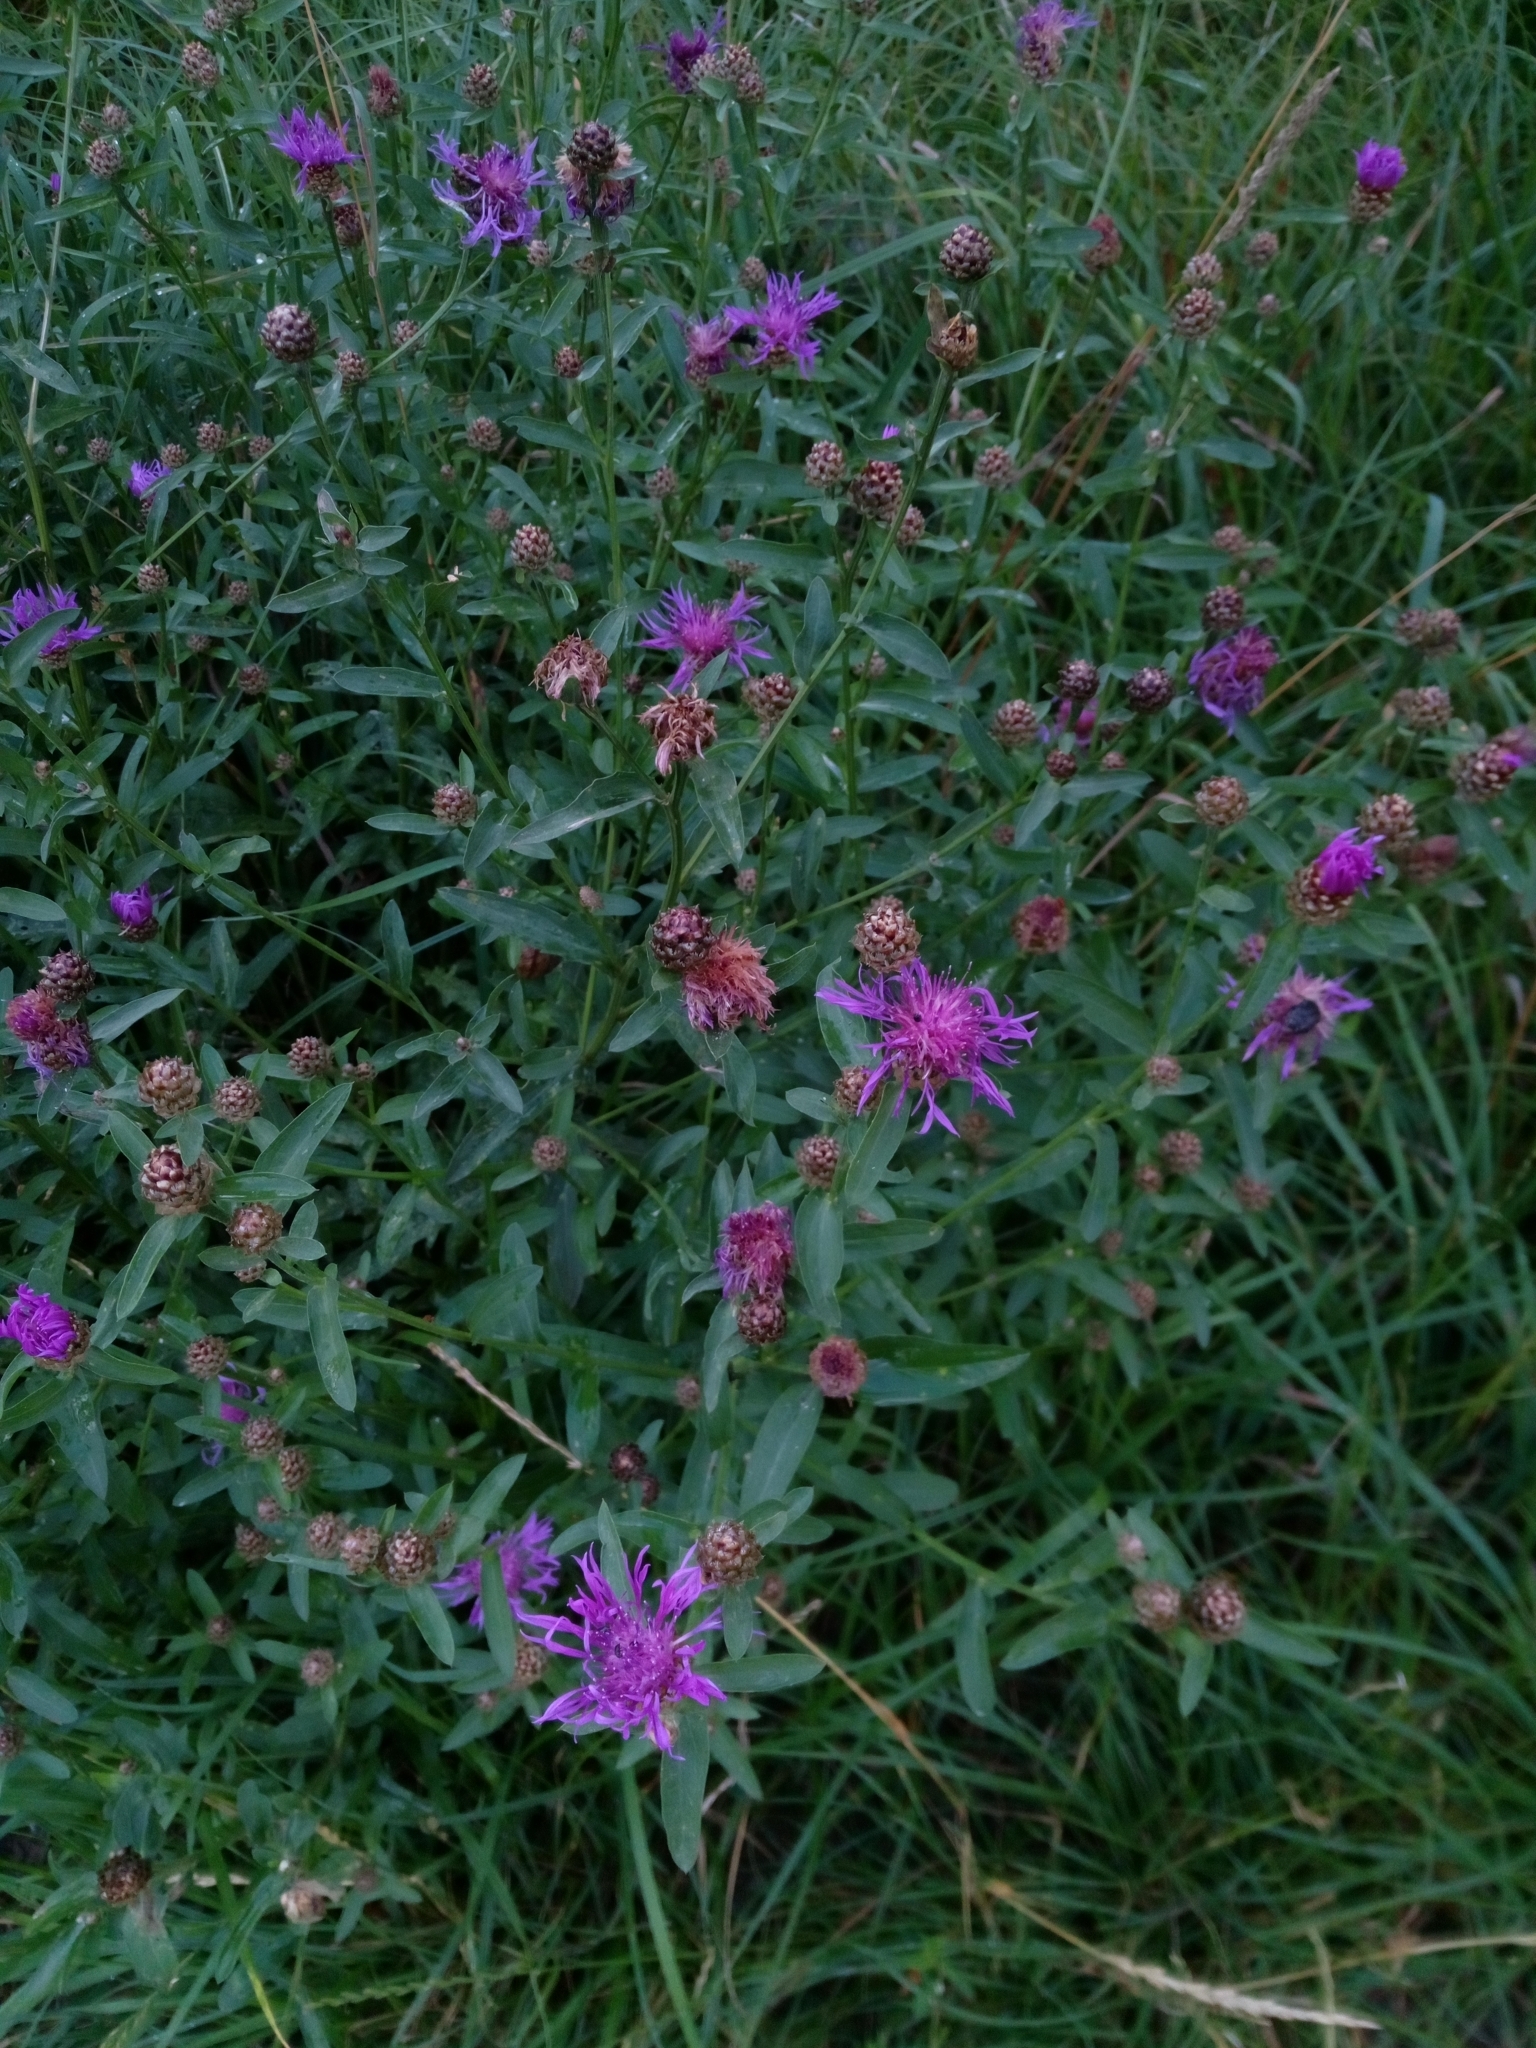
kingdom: Plantae
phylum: Tracheophyta
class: Magnoliopsida
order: Asterales
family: Asteraceae
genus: Centaurea
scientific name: Centaurea jacea
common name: Brown knapweed
